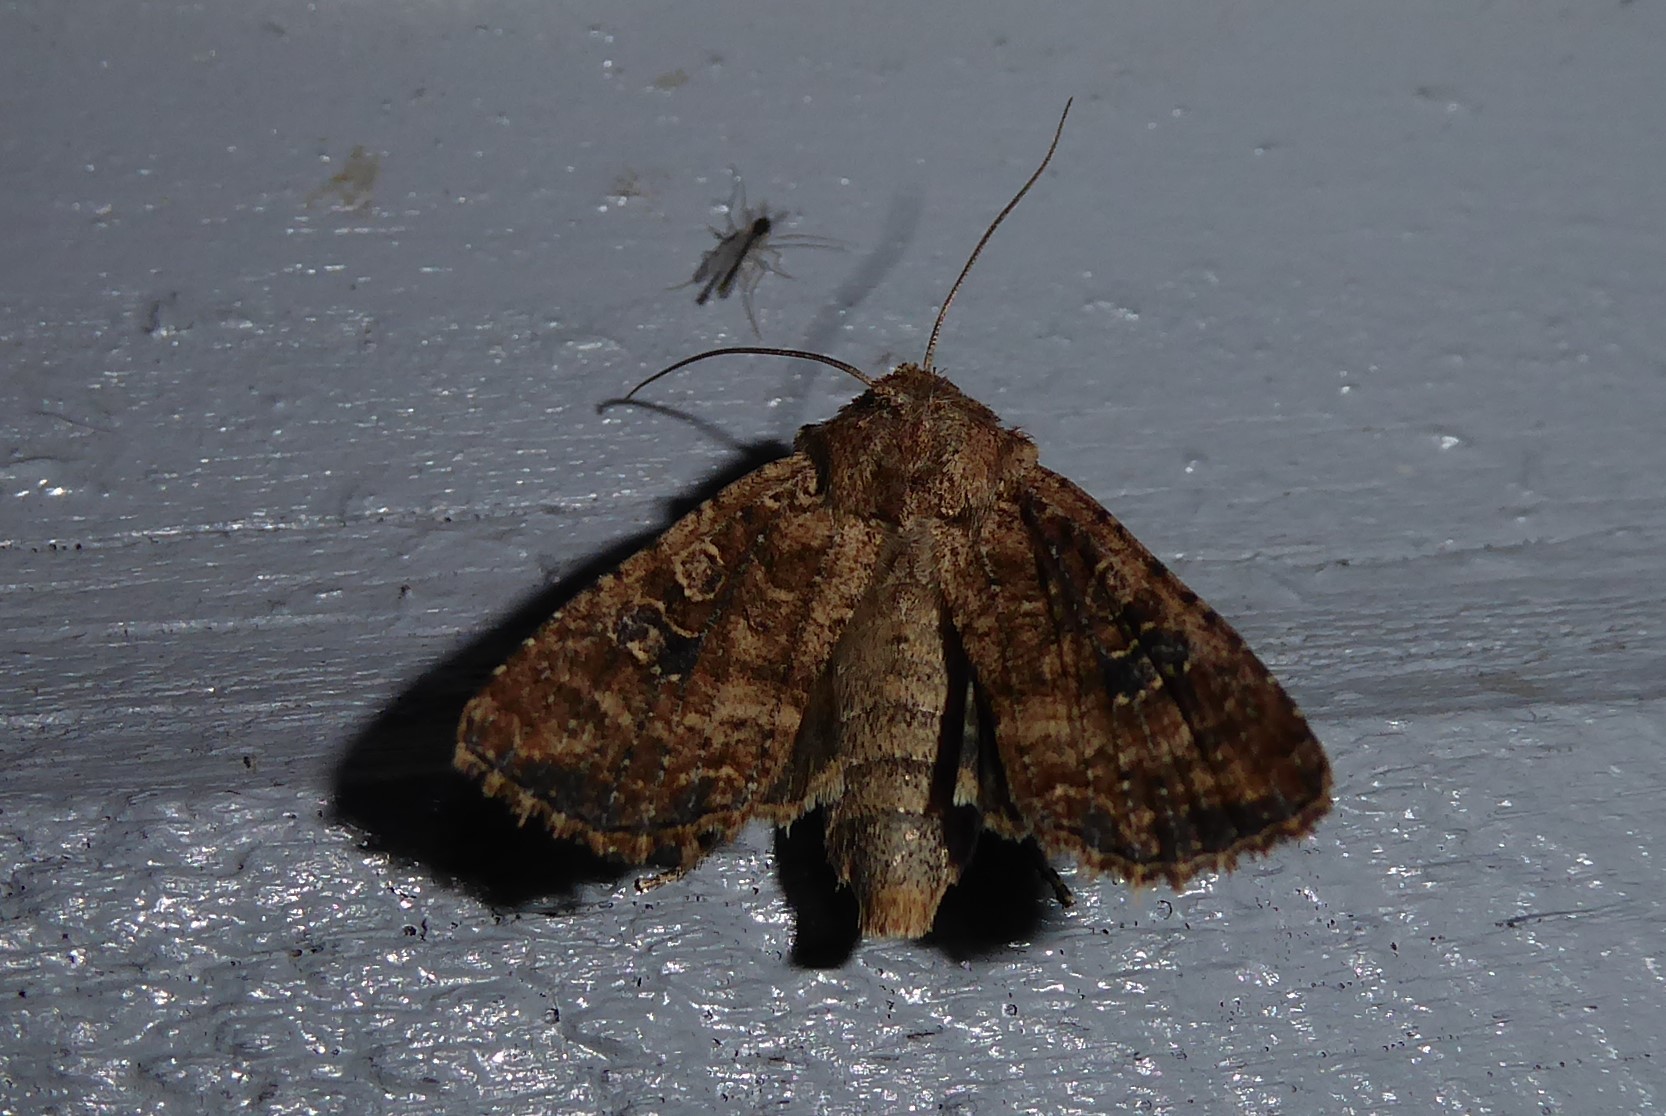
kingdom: Animalia
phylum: Arthropoda
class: Insecta
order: Lepidoptera
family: Noctuidae
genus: Ichneutica
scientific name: Ichneutica morosa
